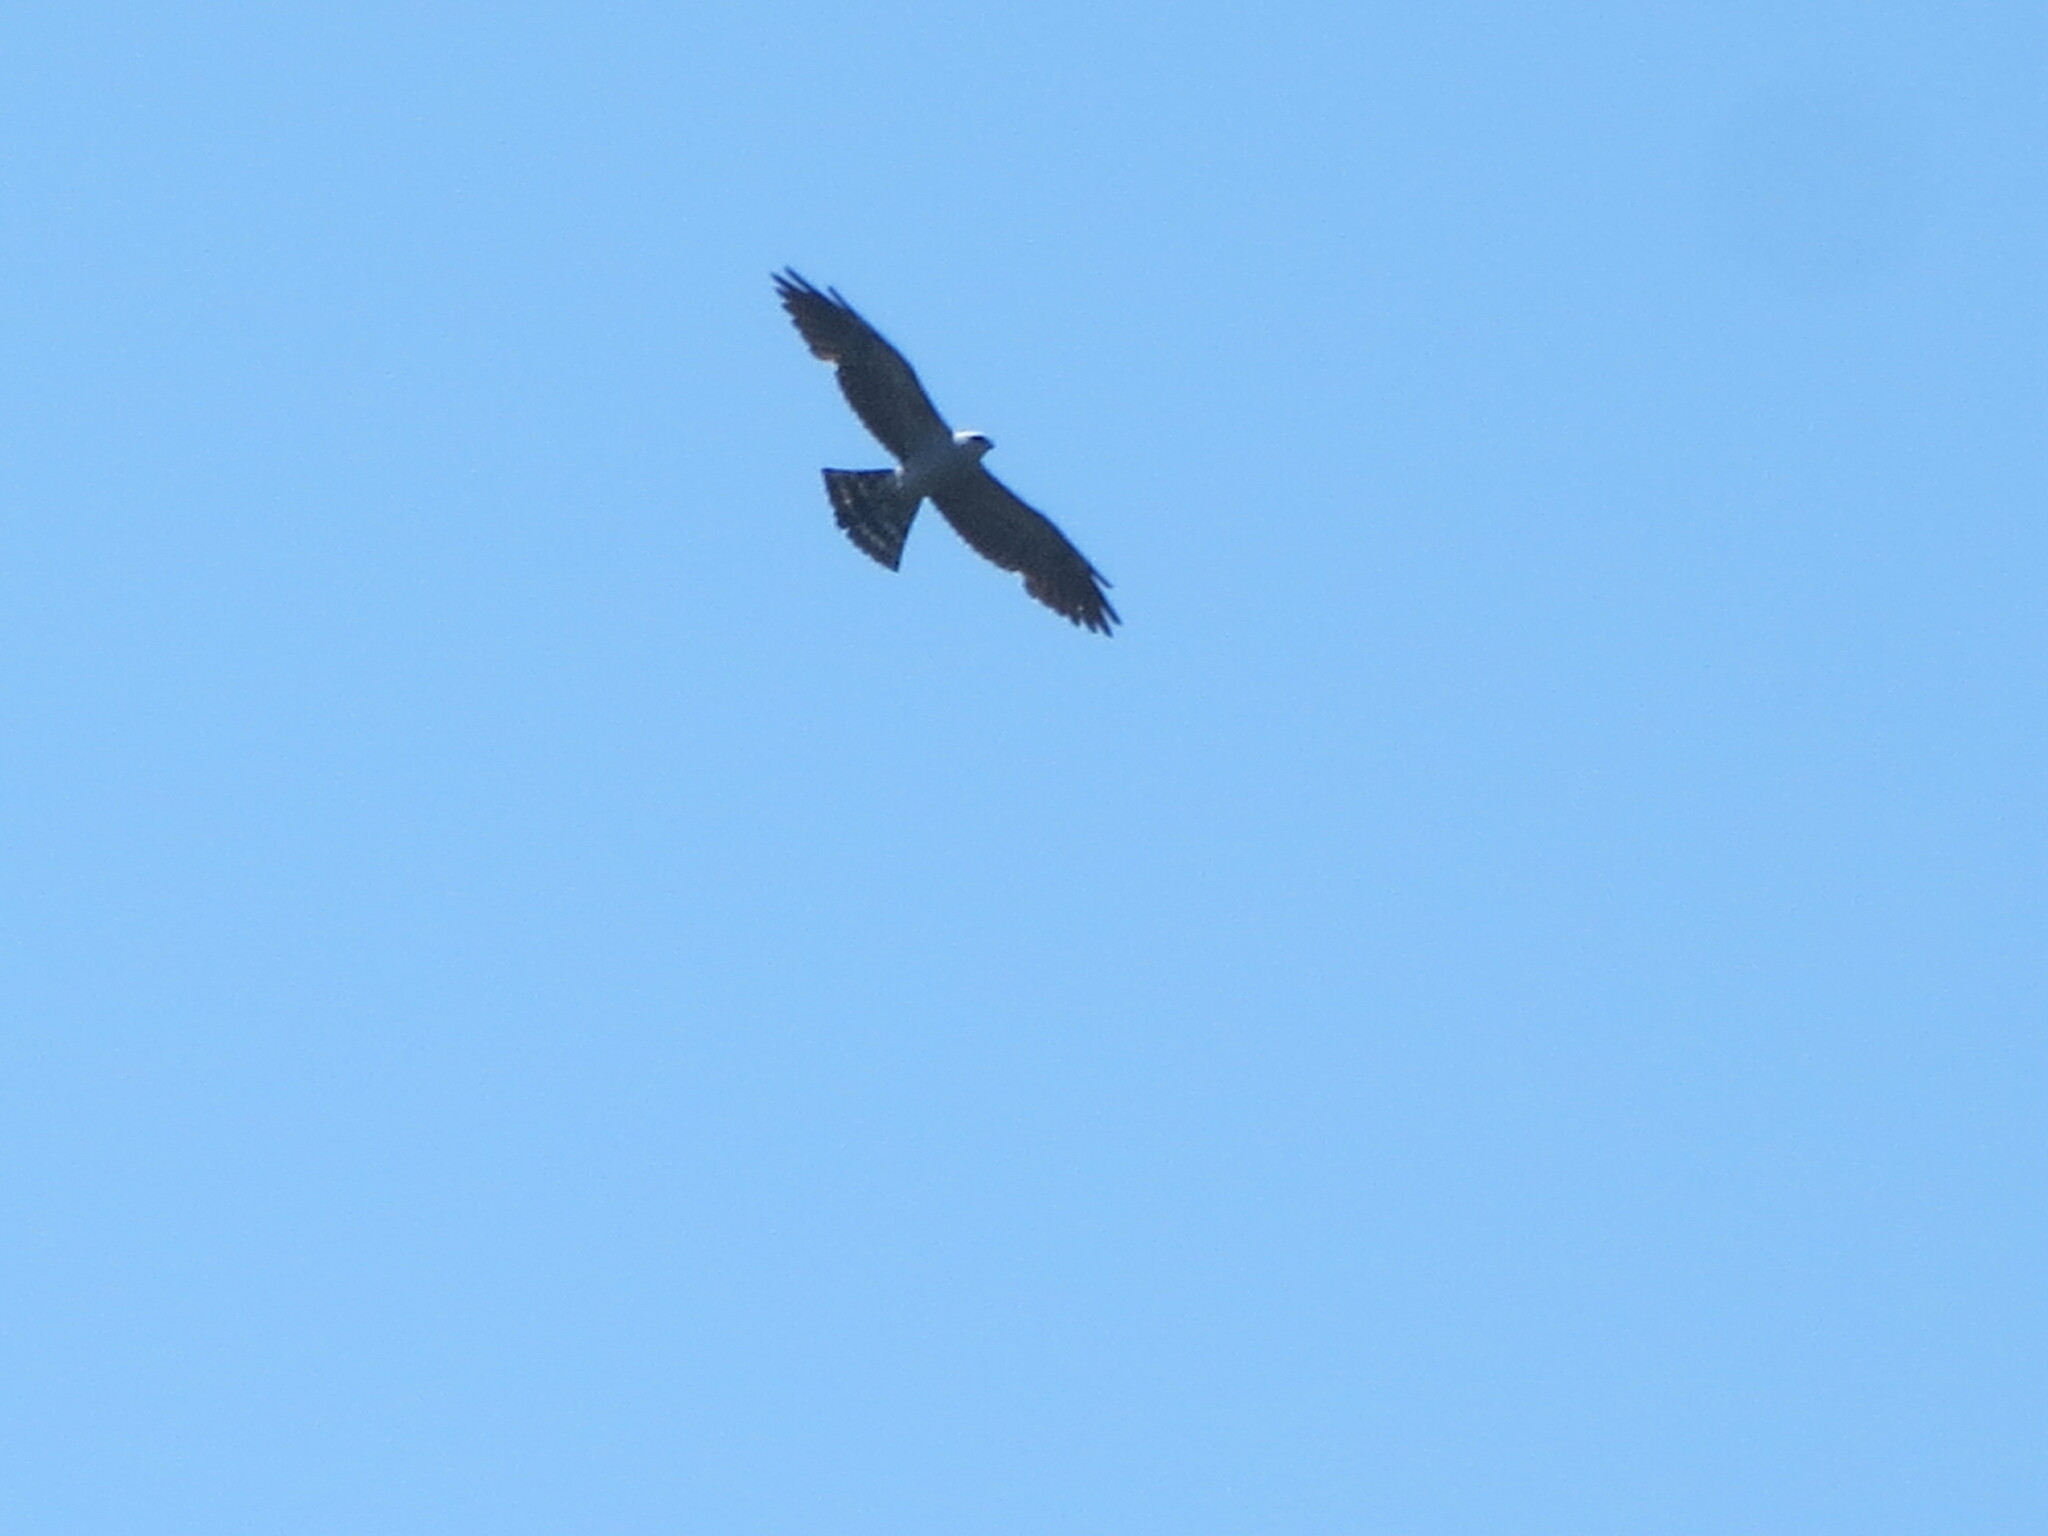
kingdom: Animalia
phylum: Chordata
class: Aves
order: Accipitriformes
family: Accipitridae
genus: Ictinia
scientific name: Ictinia mississippiensis
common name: Mississippi kite
